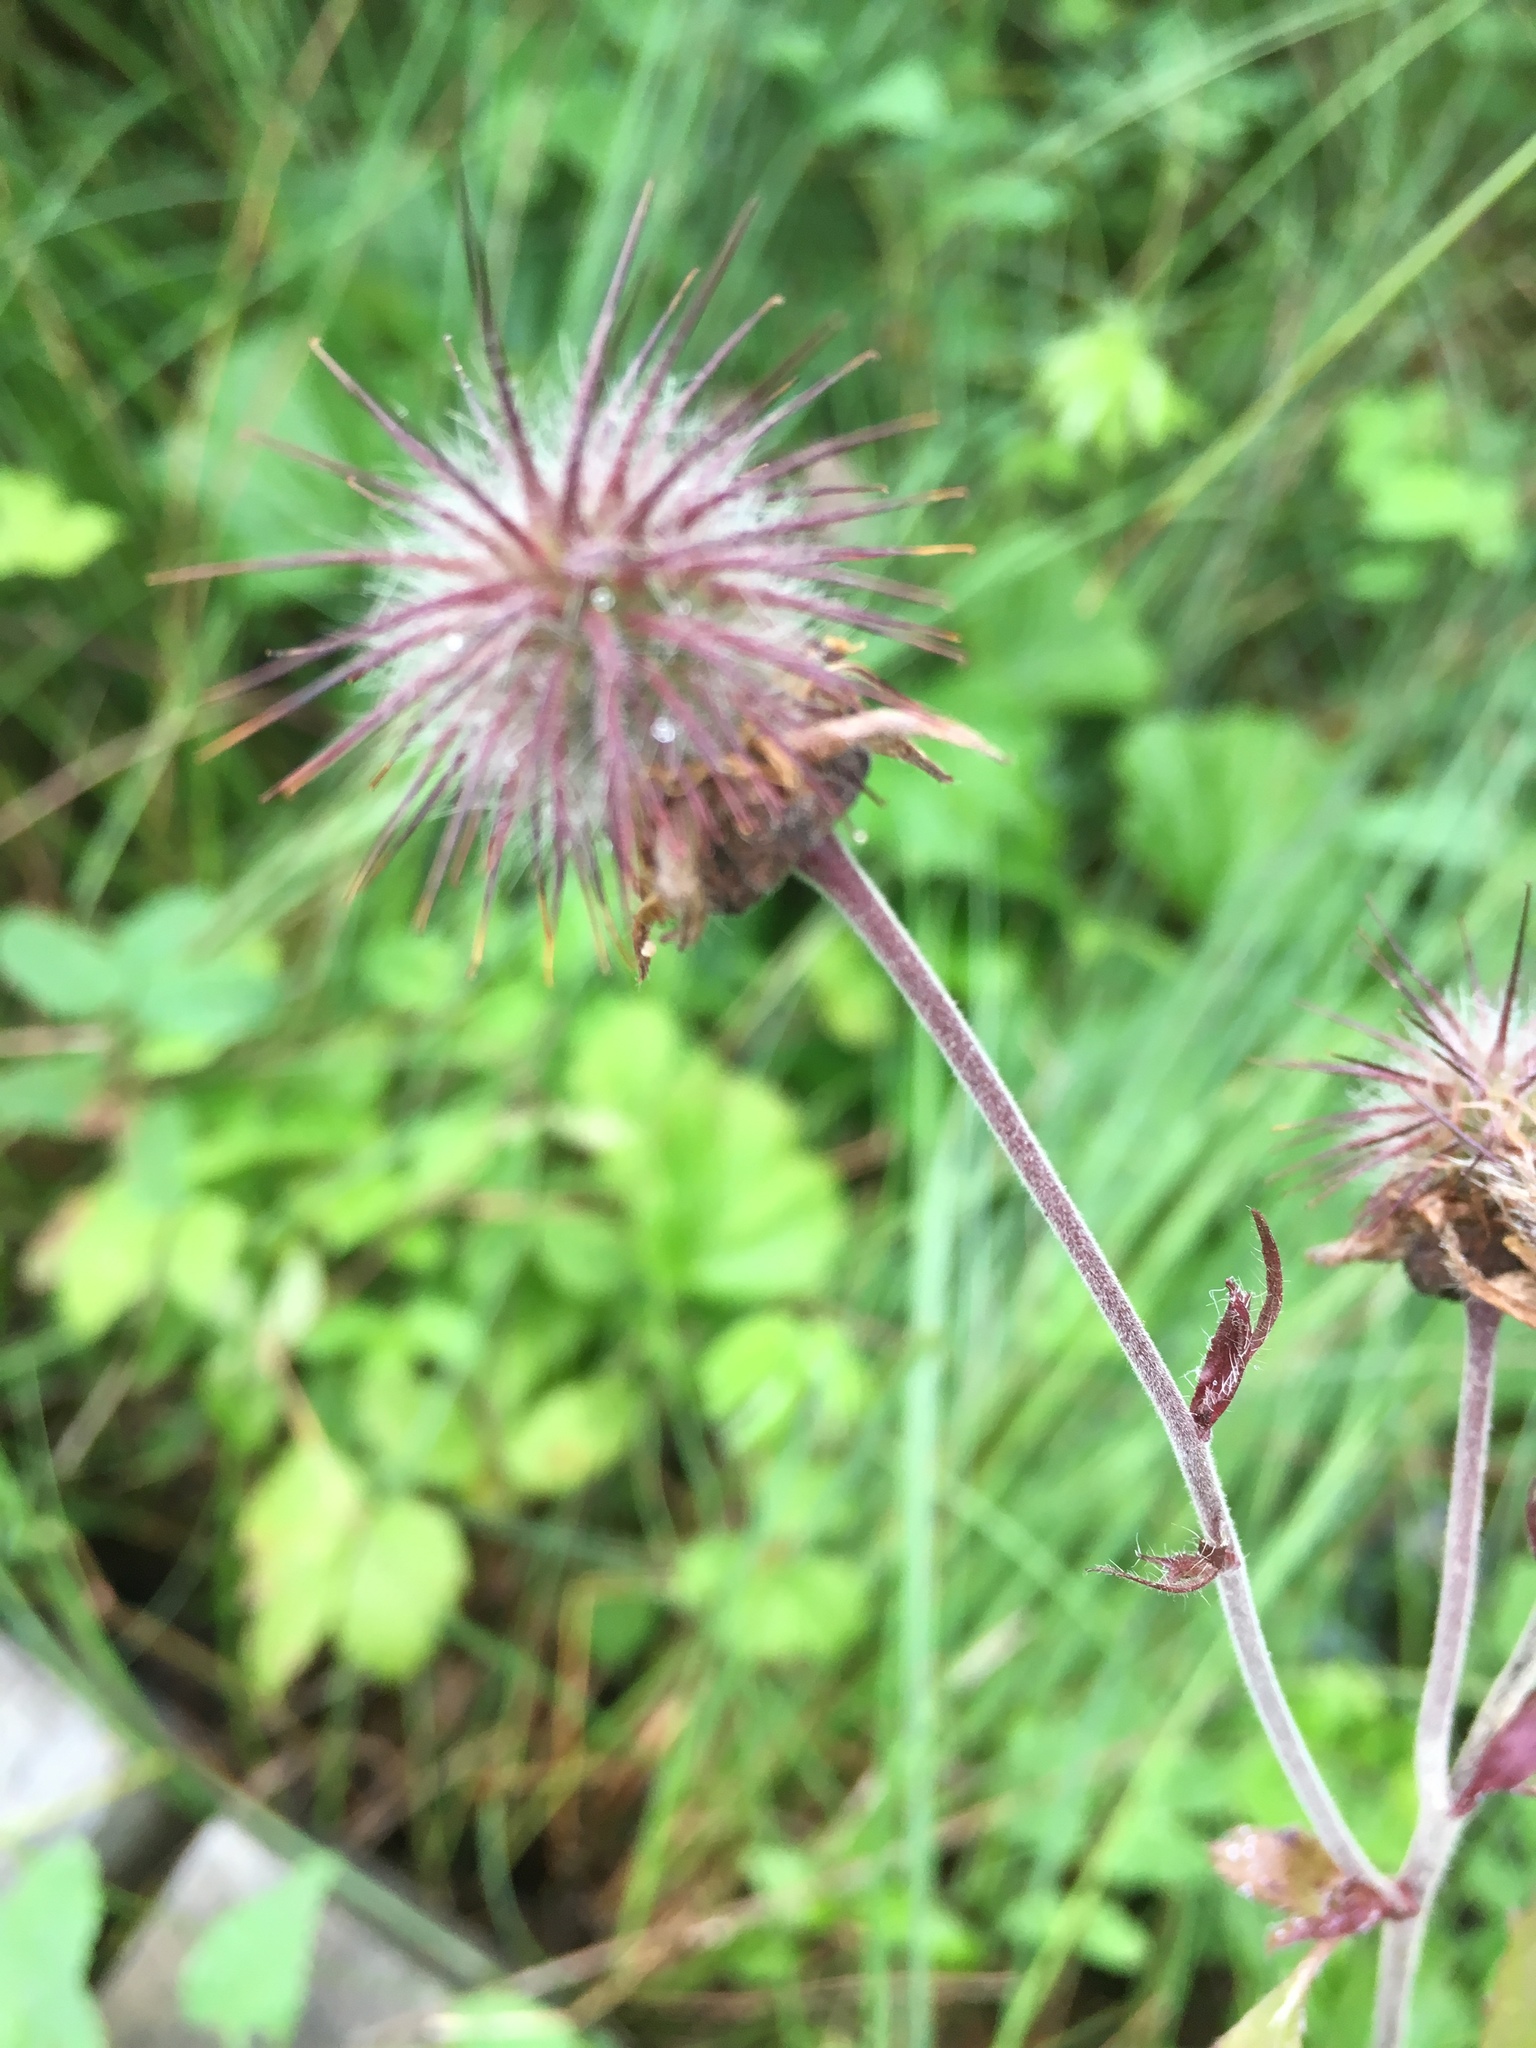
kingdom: Plantae
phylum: Tracheophyta
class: Magnoliopsida
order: Rosales
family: Rosaceae
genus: Geum
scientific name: Geum rivale
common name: Water avens
